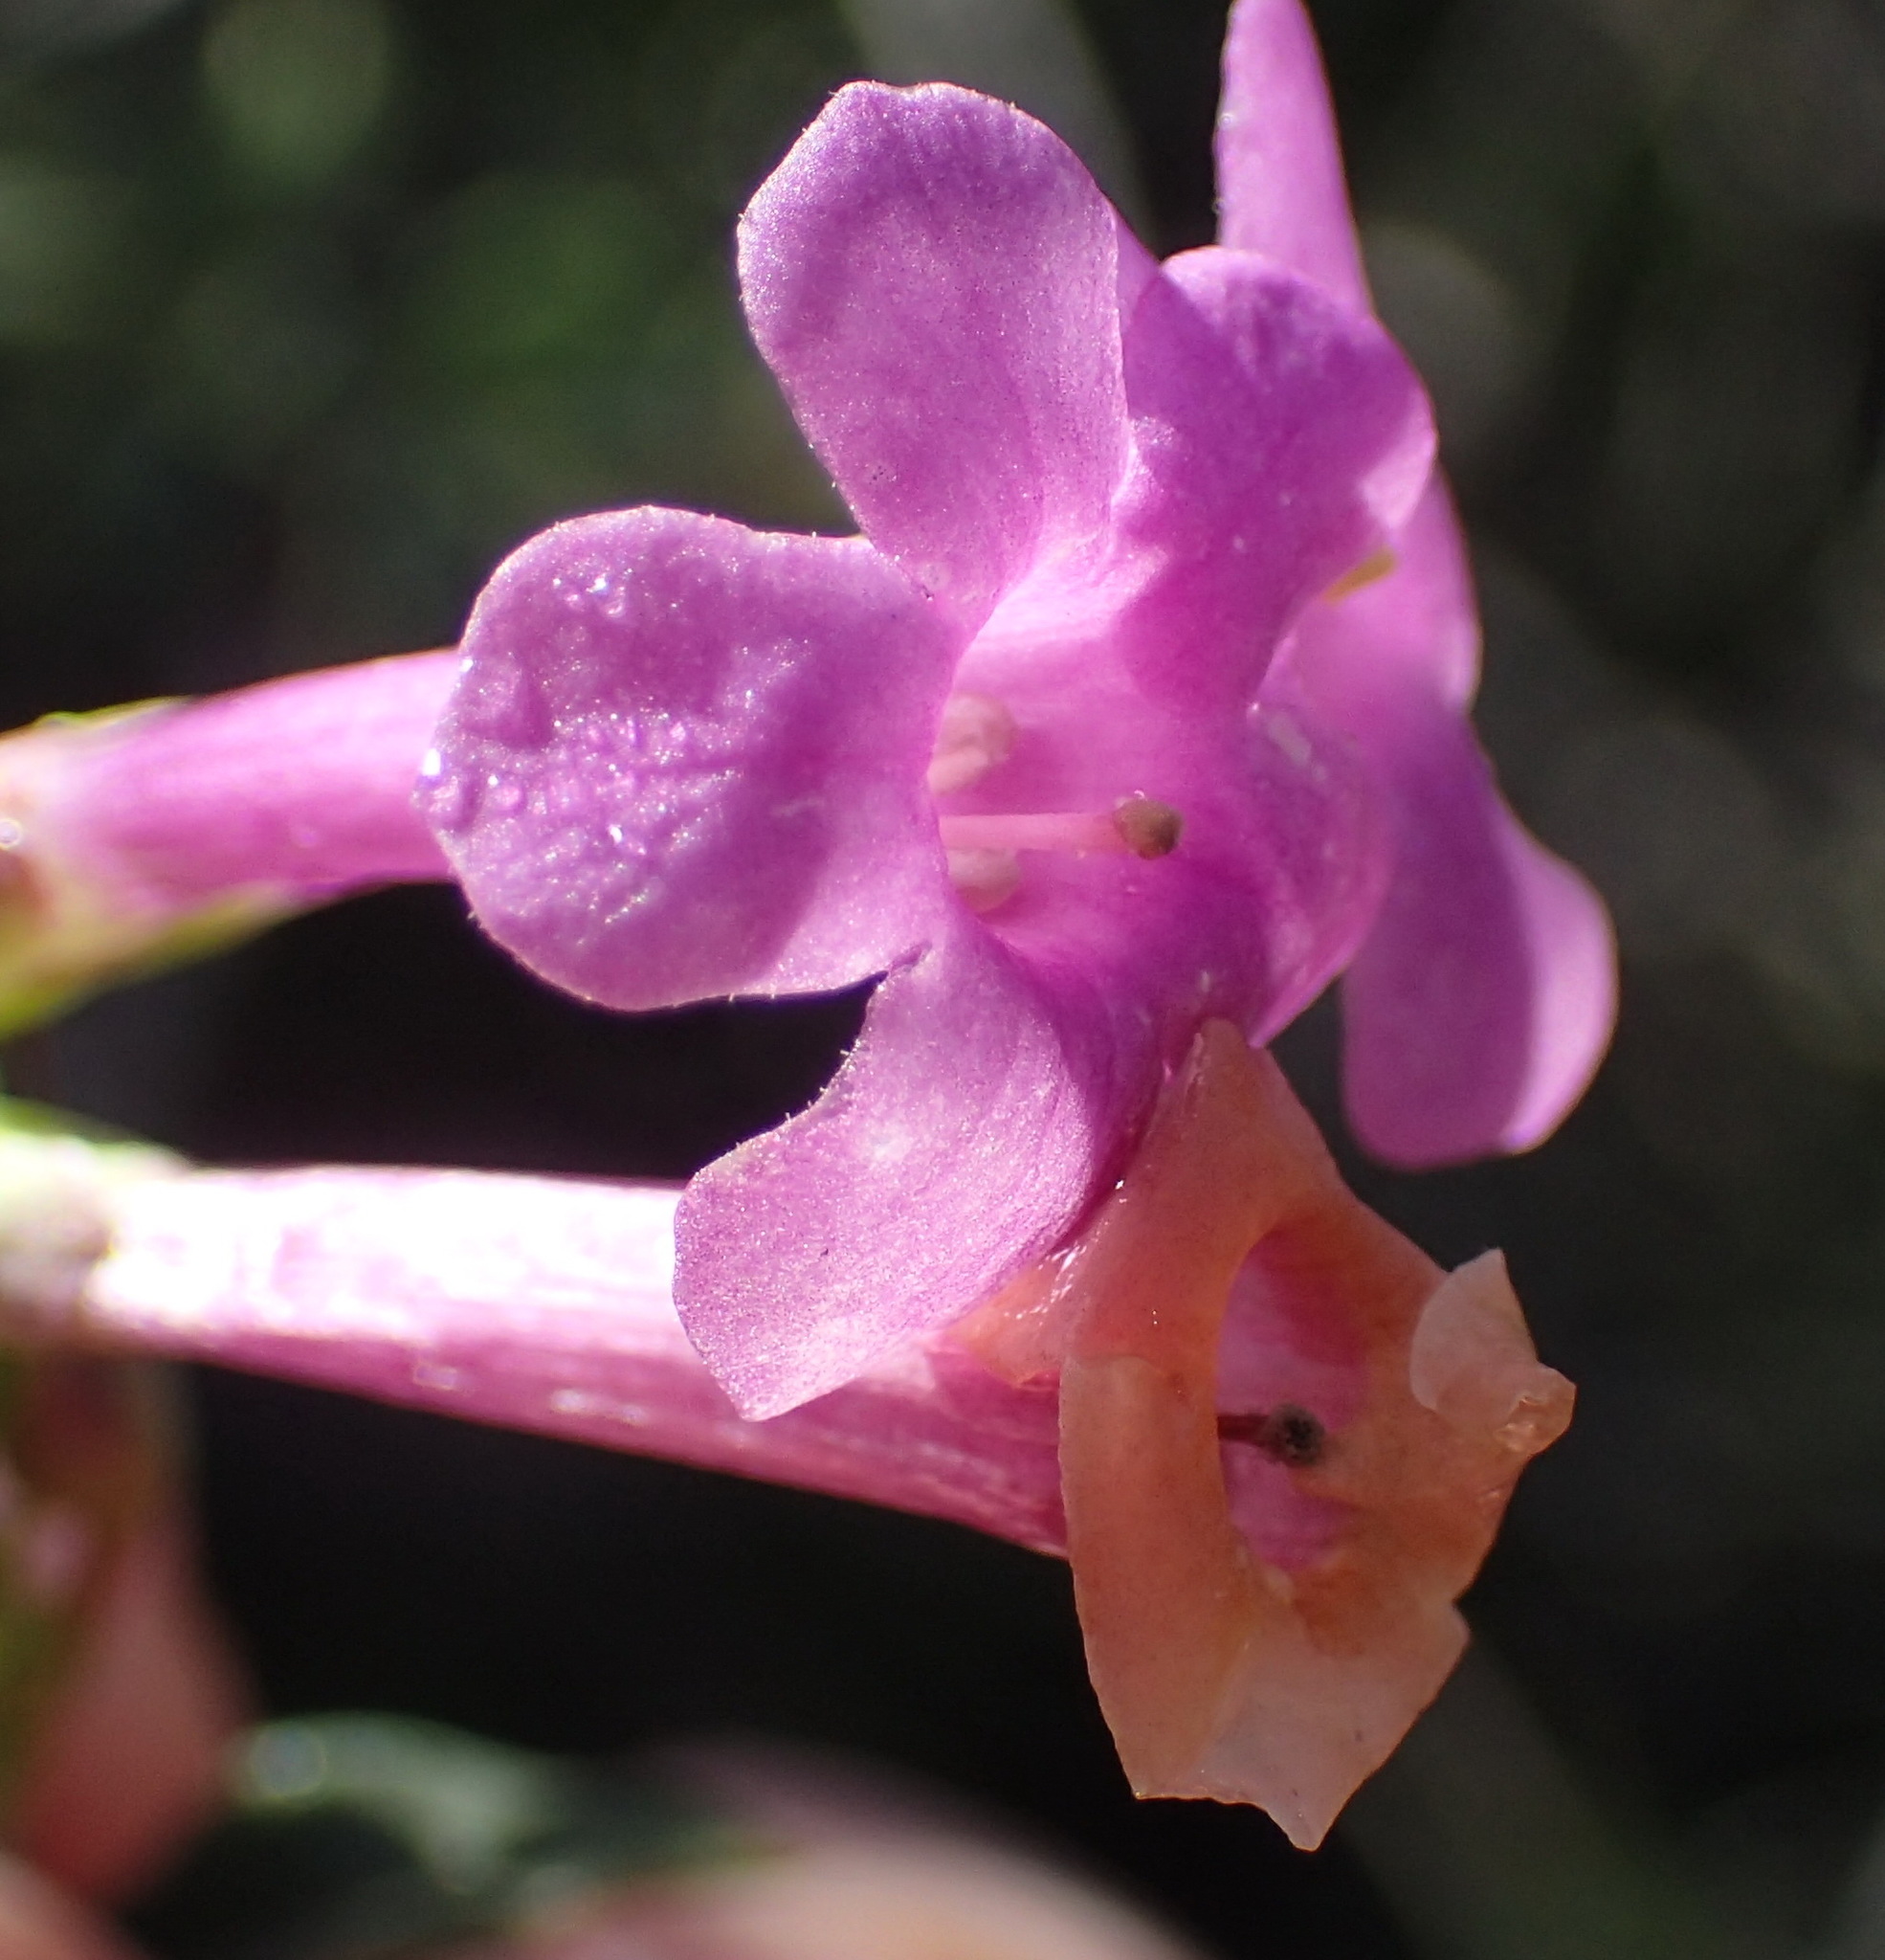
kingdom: Plantae
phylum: Tracheophyta
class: Magnoliopsida
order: Lamiales
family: Scrophulariaceae
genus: Freylinia
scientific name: Freylinia vlokii
